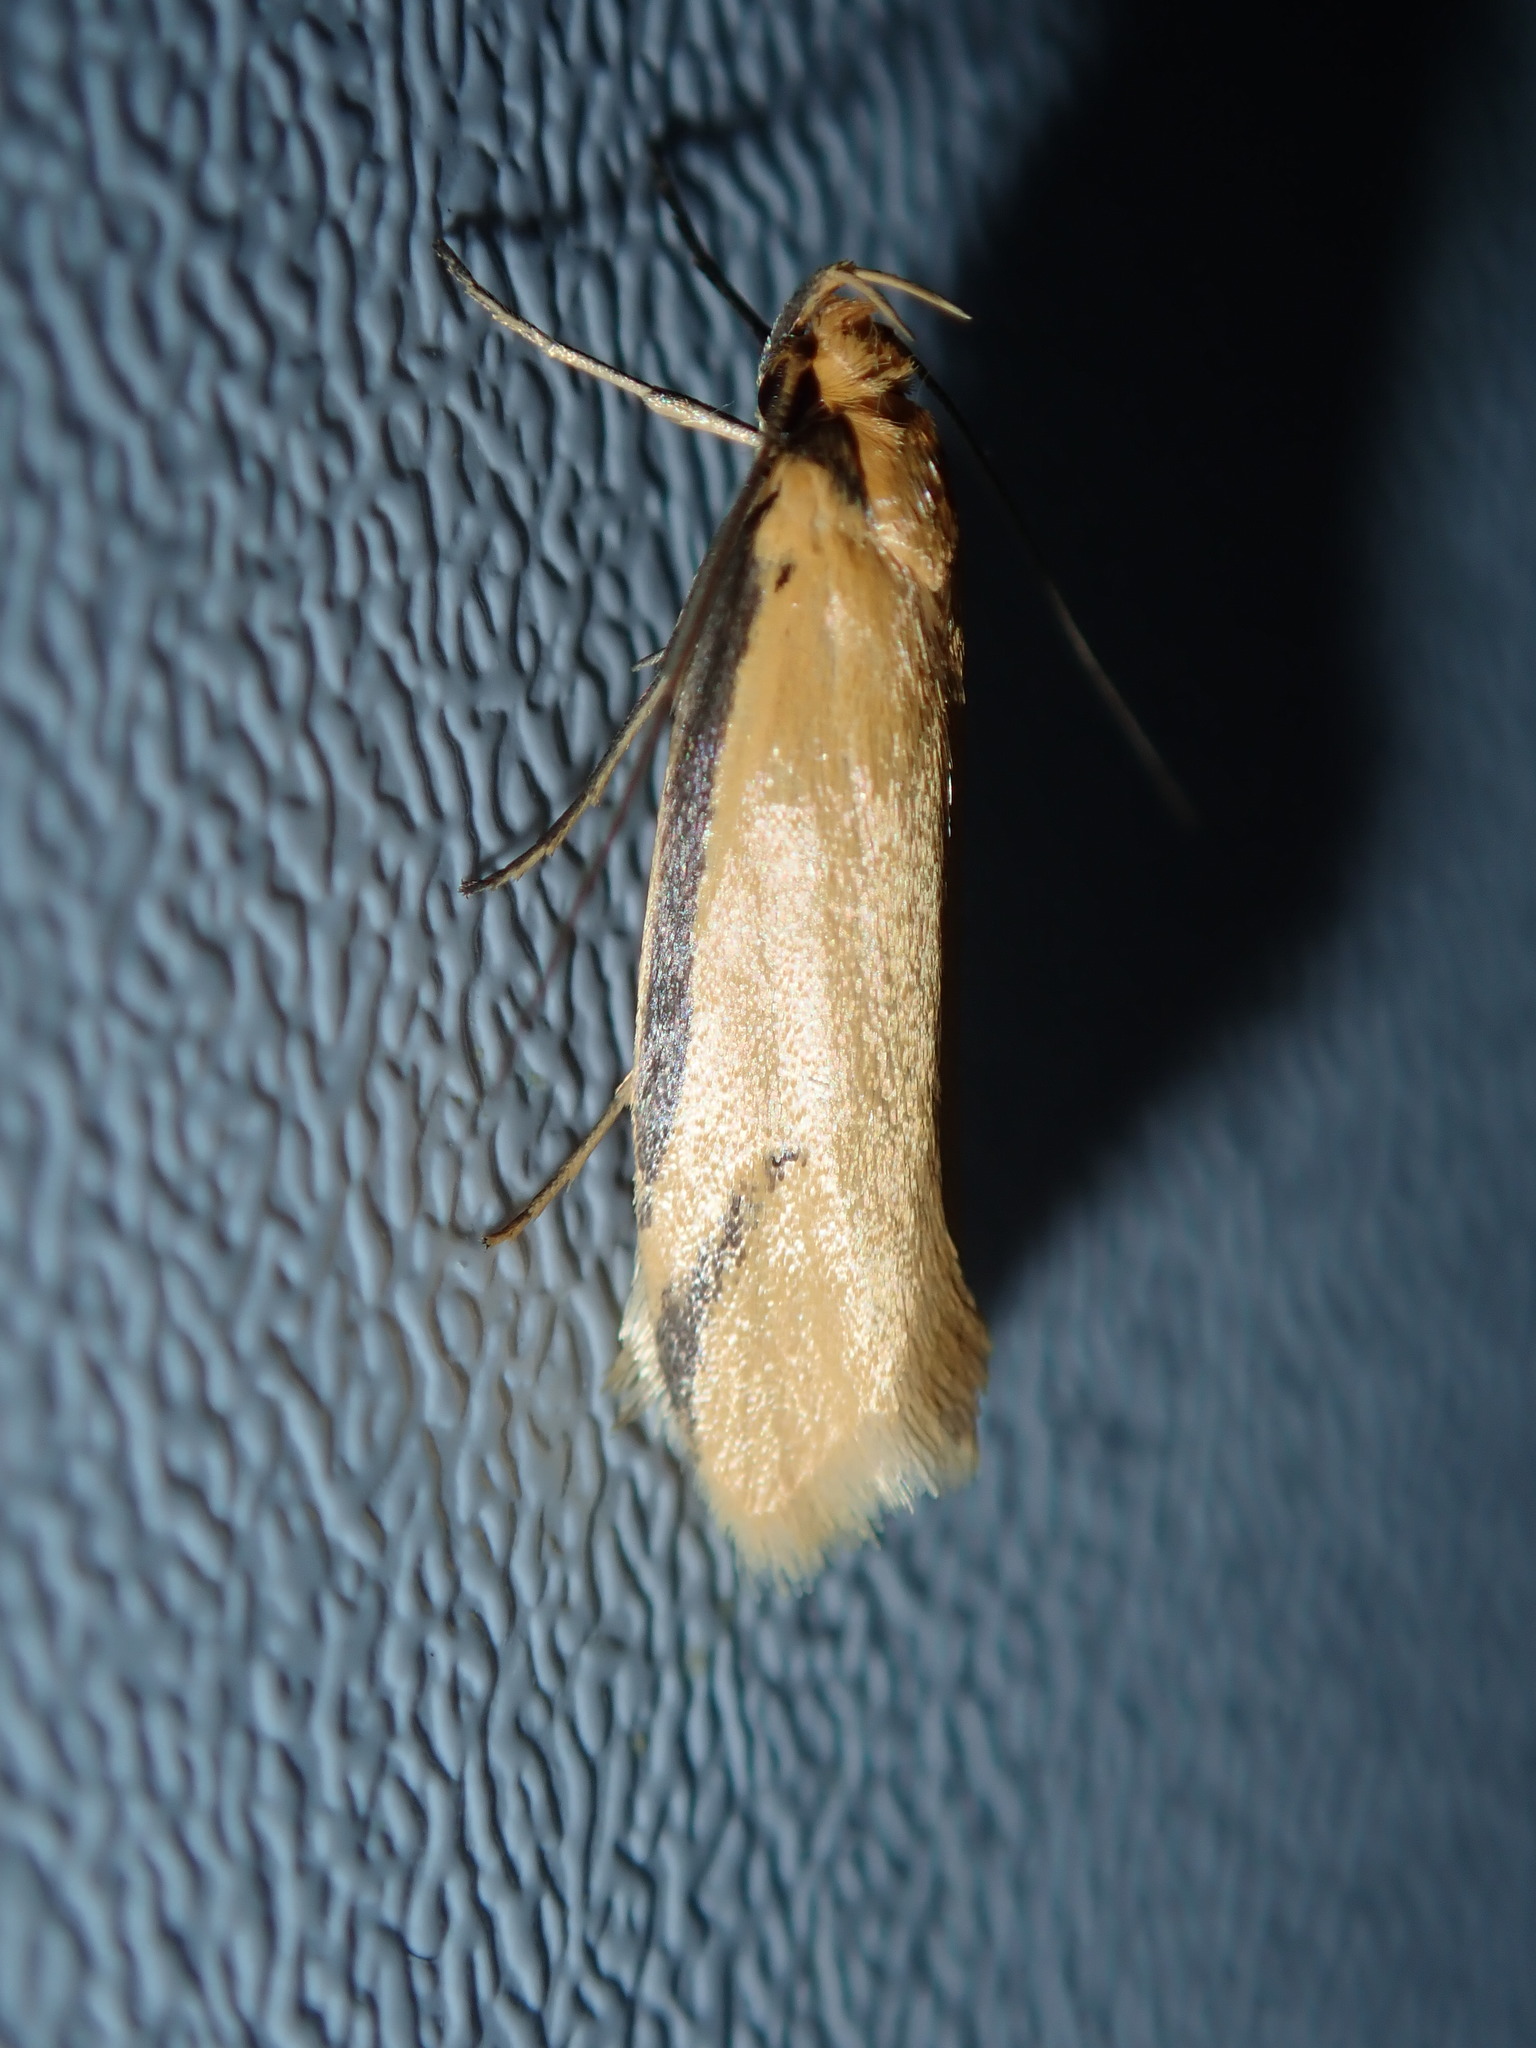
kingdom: Animalia
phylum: Arthropoda
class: Insecta
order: Lepidoptera
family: Oecophoridae
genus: Philobota
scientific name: Philobota latifissella
